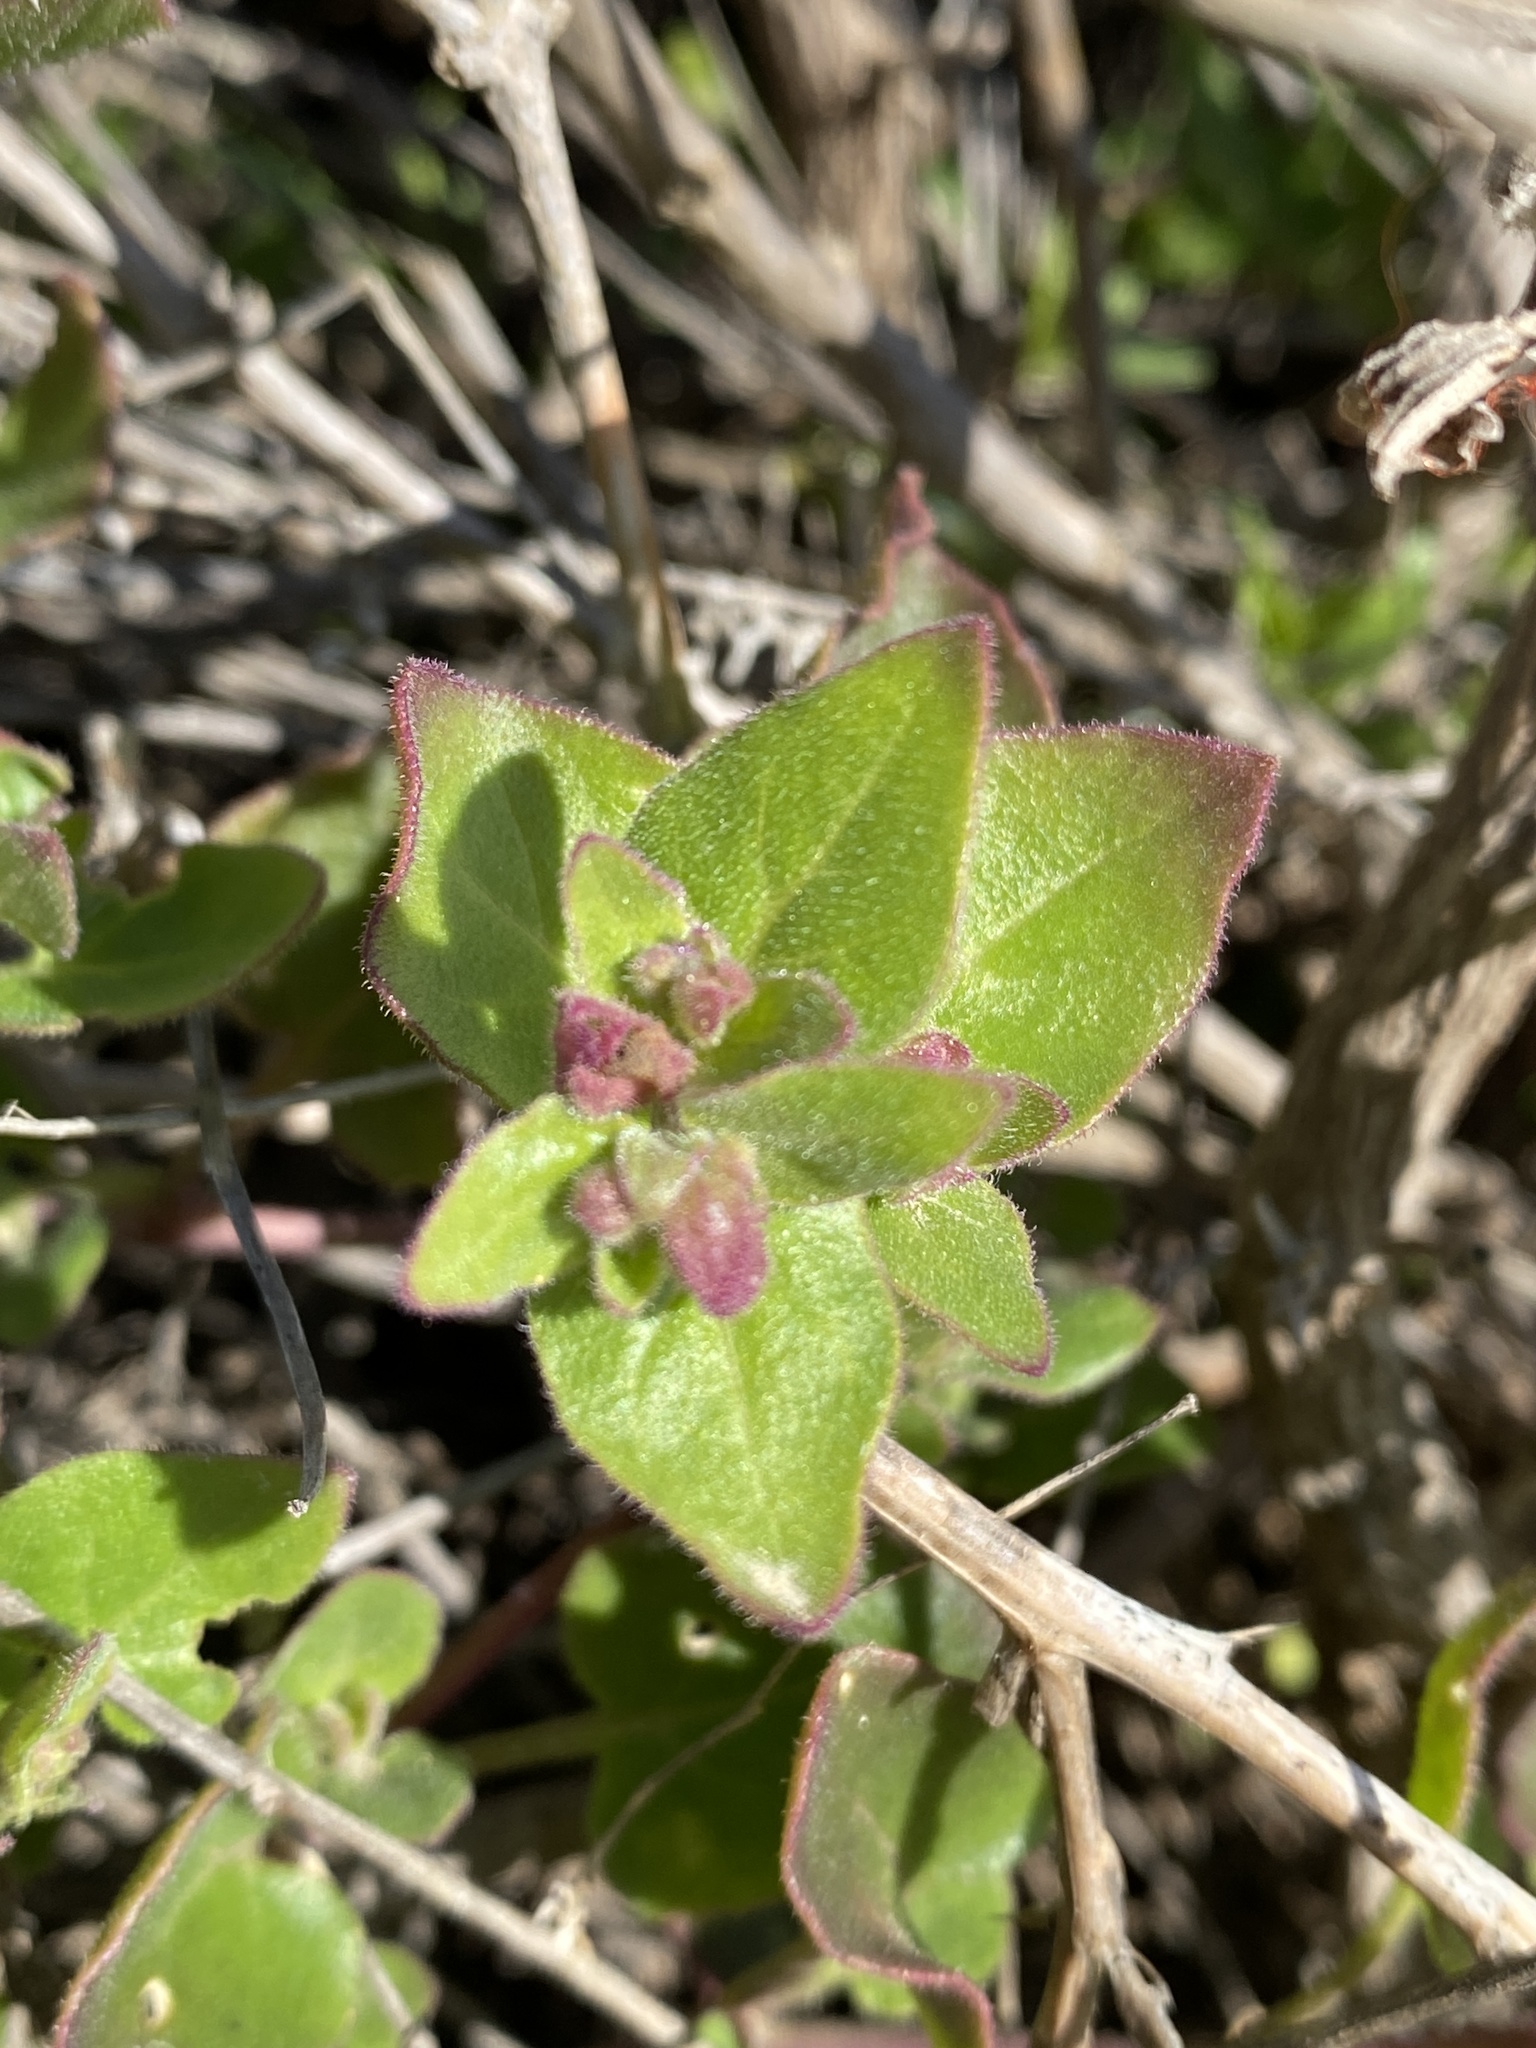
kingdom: Plantae
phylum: Tracheophyta
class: Magnoliopsida
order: Caryophyllales
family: Nyctaginaceae
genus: Mirabilis
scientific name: Mirabilis laevis
